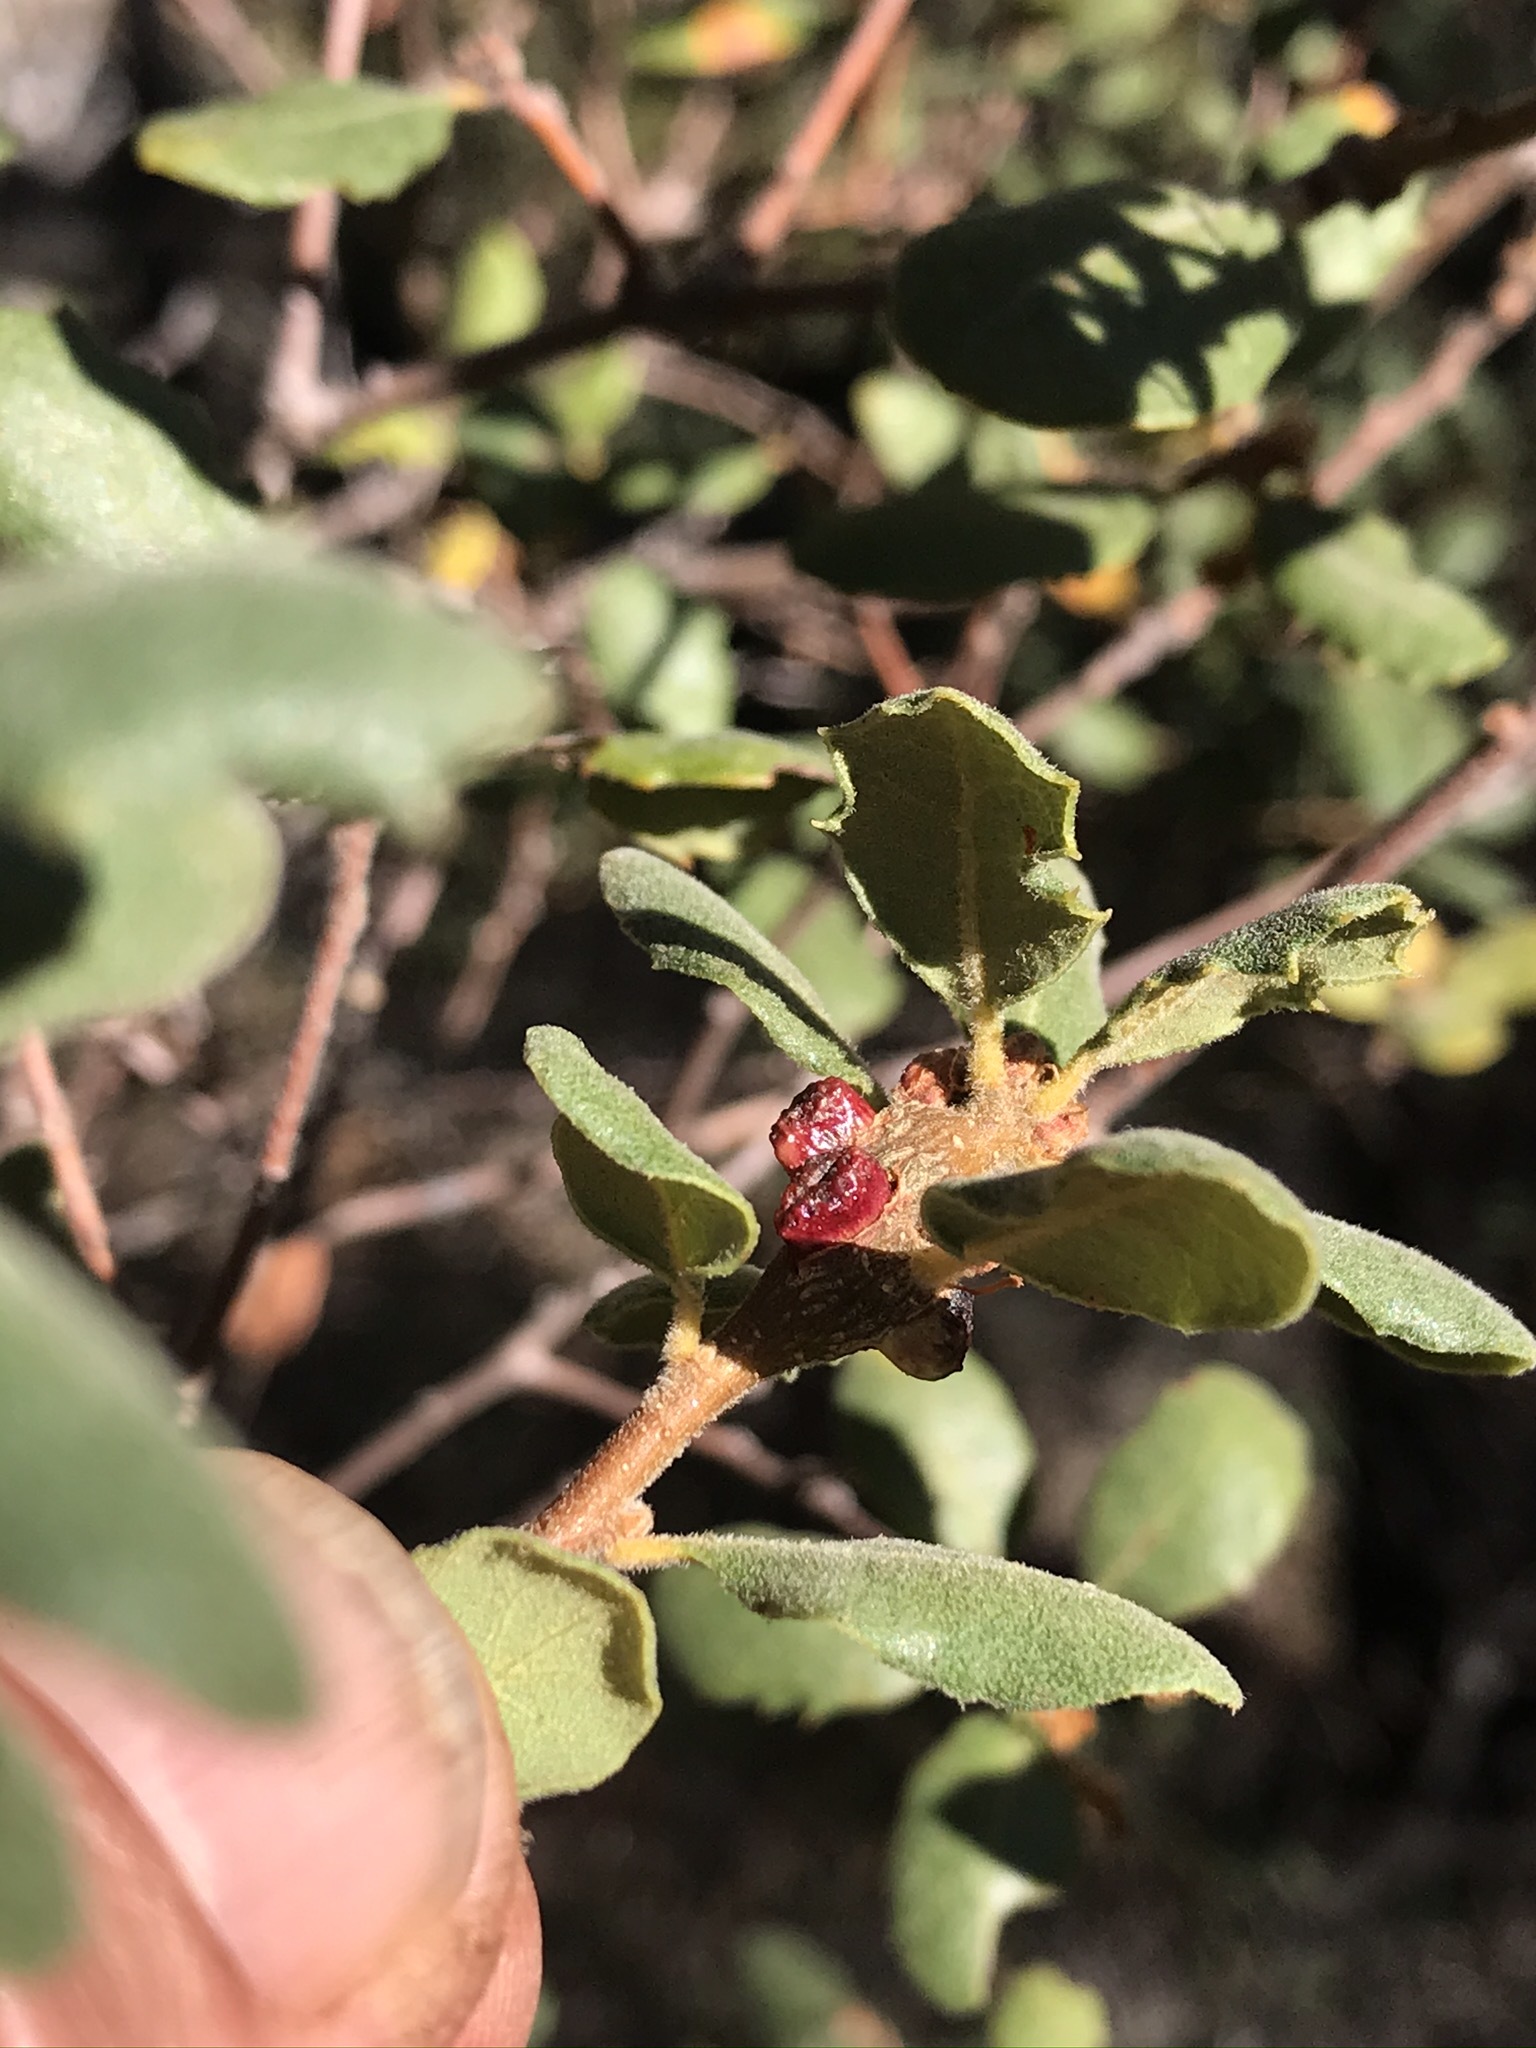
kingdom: Animalia
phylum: Arthropoda
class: Insecta
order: Hymenoptera
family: Cynipidae
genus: Disholcaspis
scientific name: Disholcaspis
